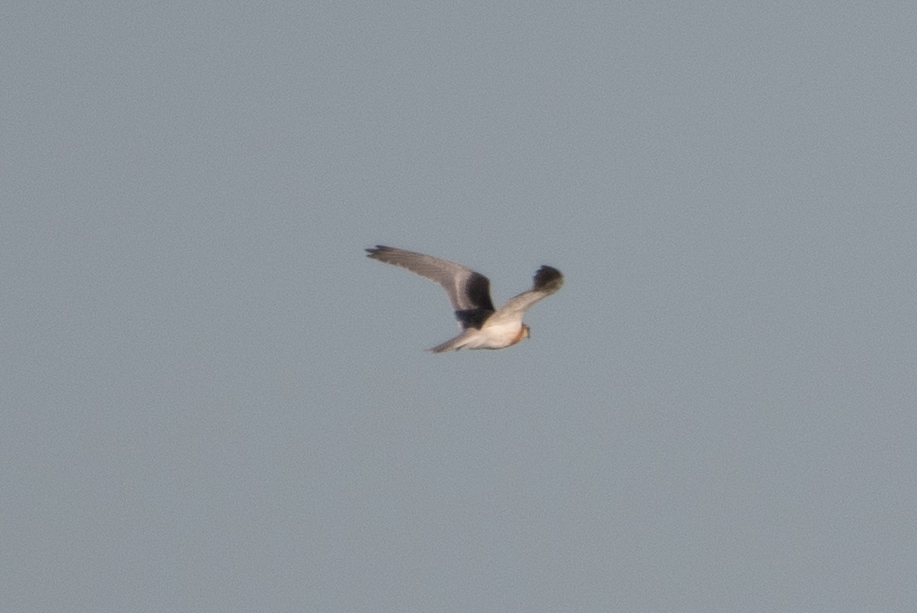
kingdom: Animalia
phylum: Chordata
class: Aves
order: Accipitriformes
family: Accipitridae
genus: Elanus
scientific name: Elanus leucurus
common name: White-tailed kite
